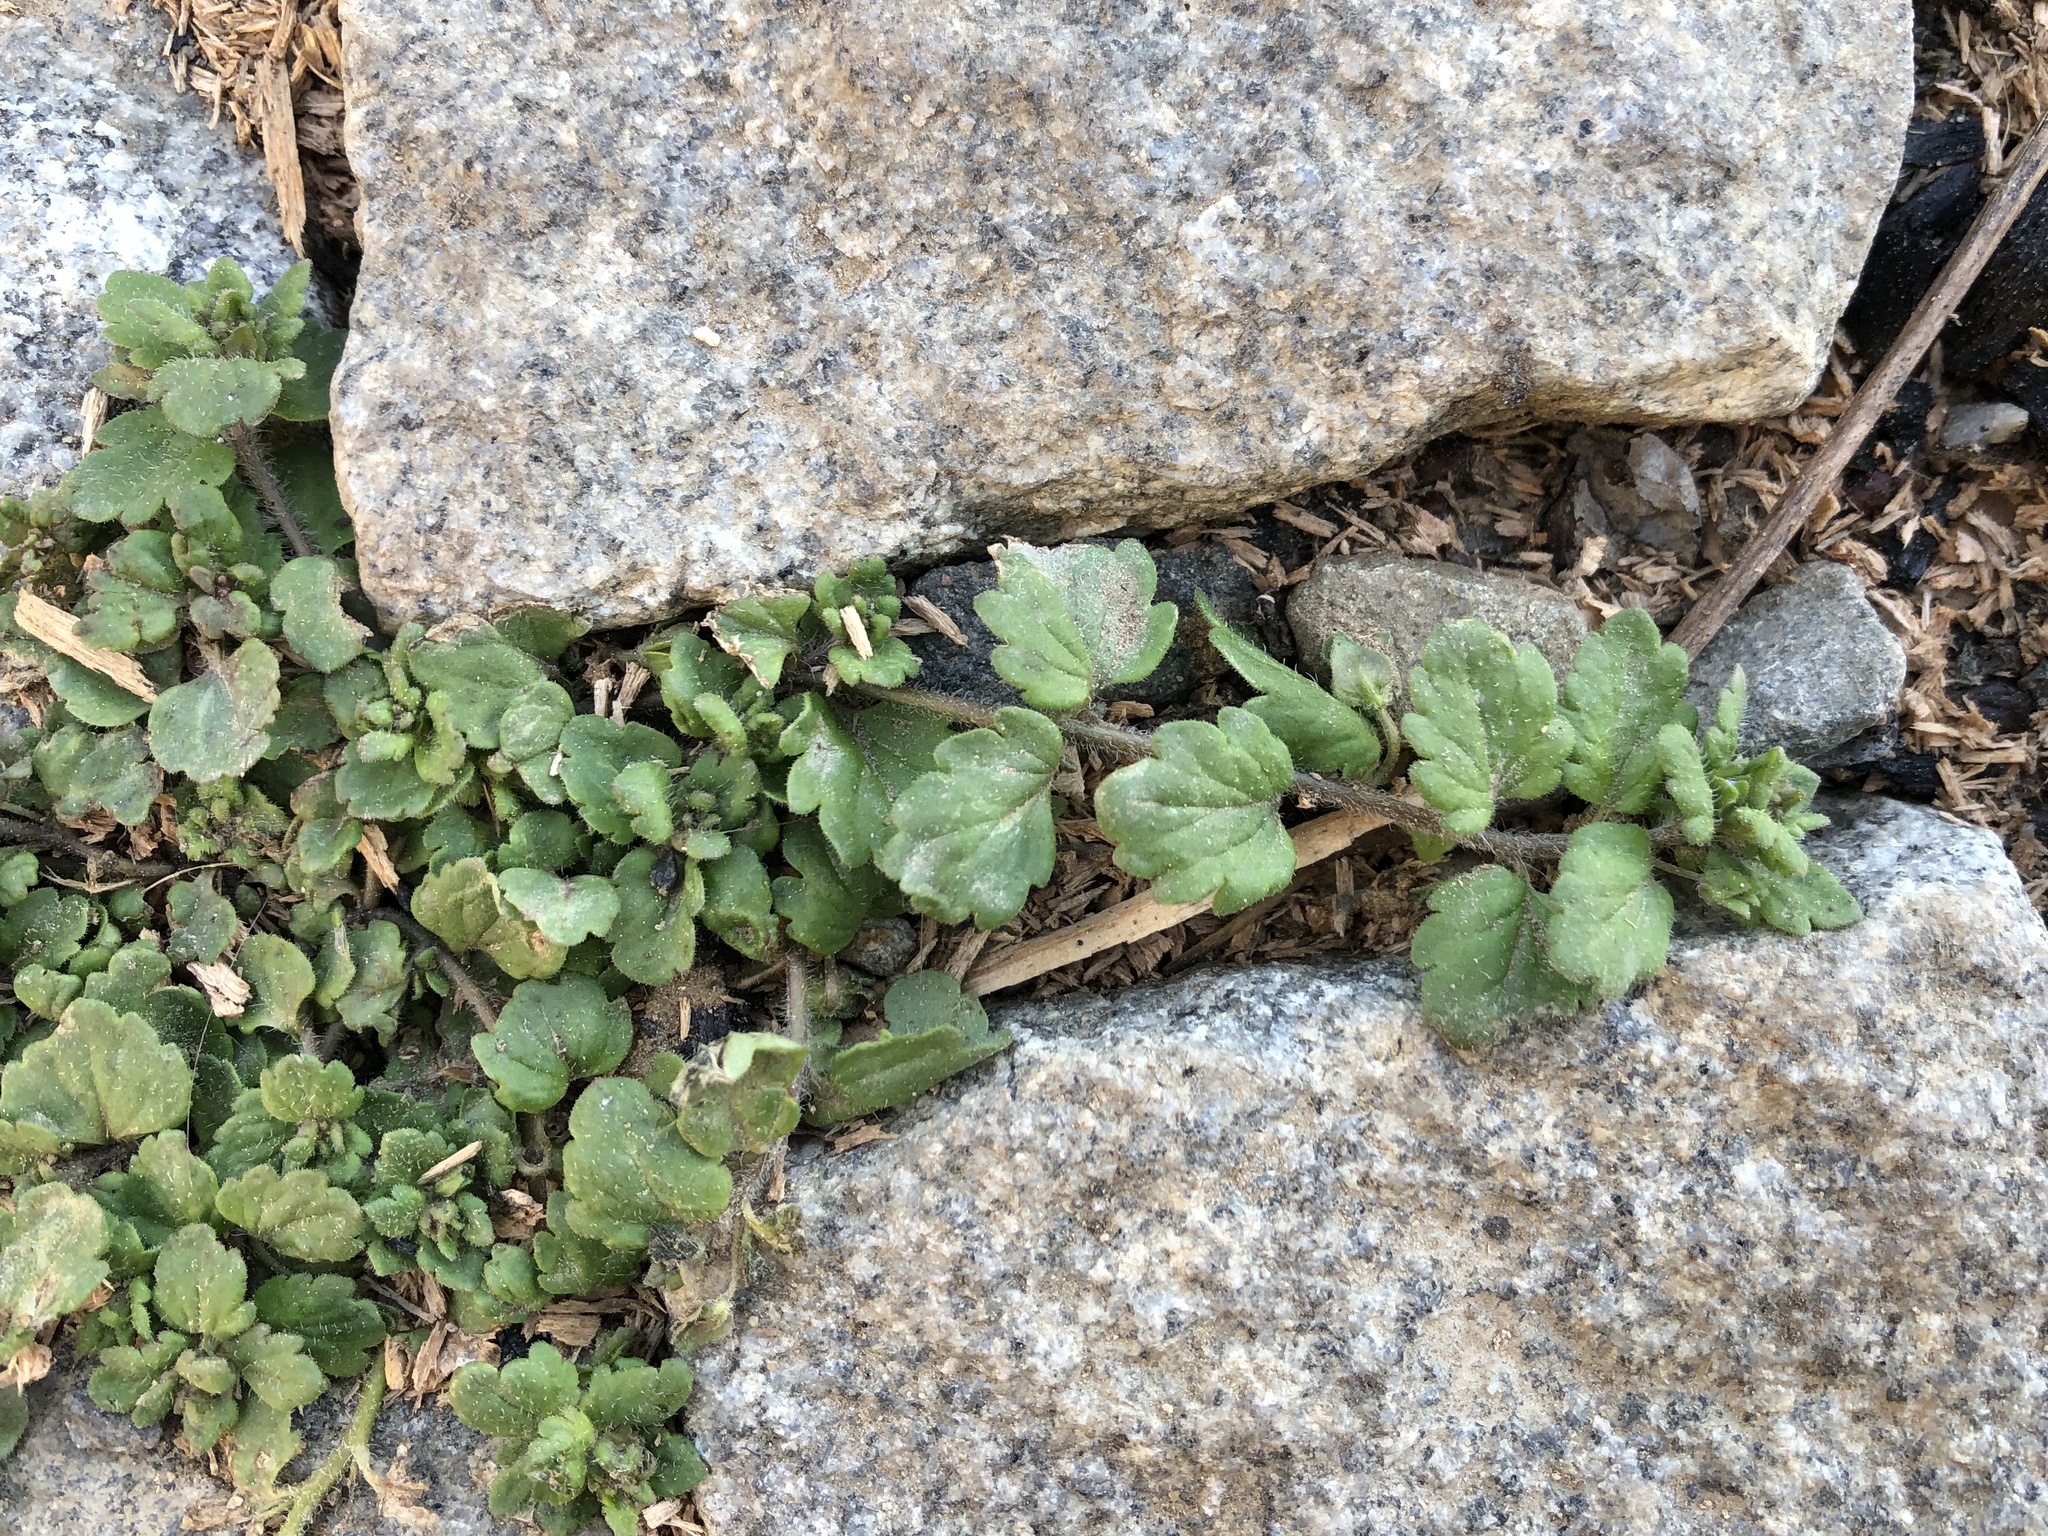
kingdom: Plantae
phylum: Tracheophyta
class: Magnoliopsida
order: Lamiales
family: Plantaginaceae
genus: Veronica
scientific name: Veronica polita
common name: Grey field-speedwell
